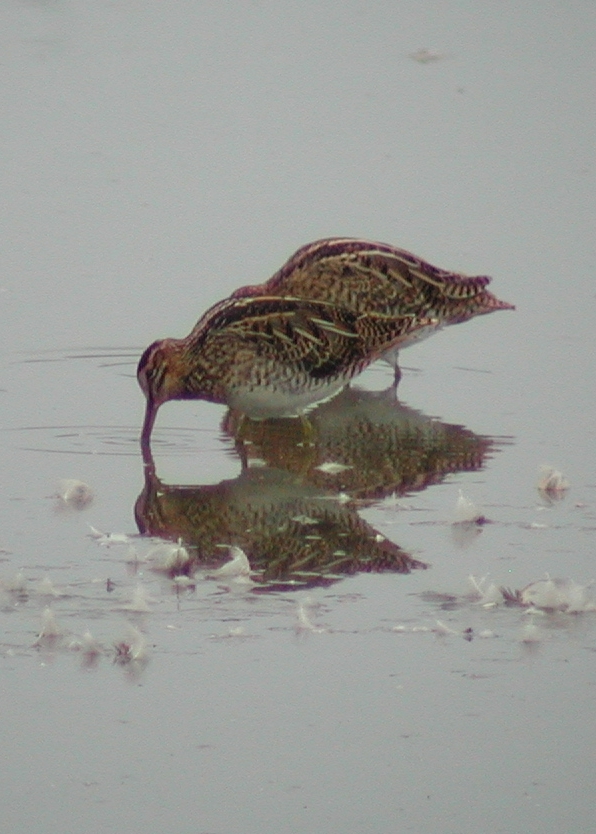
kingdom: Animalia
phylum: Chordata
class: Aves
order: Charadriiformes
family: Scolopacidae
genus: Gallinago
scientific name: Gallinago gallinago
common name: Common snipe
